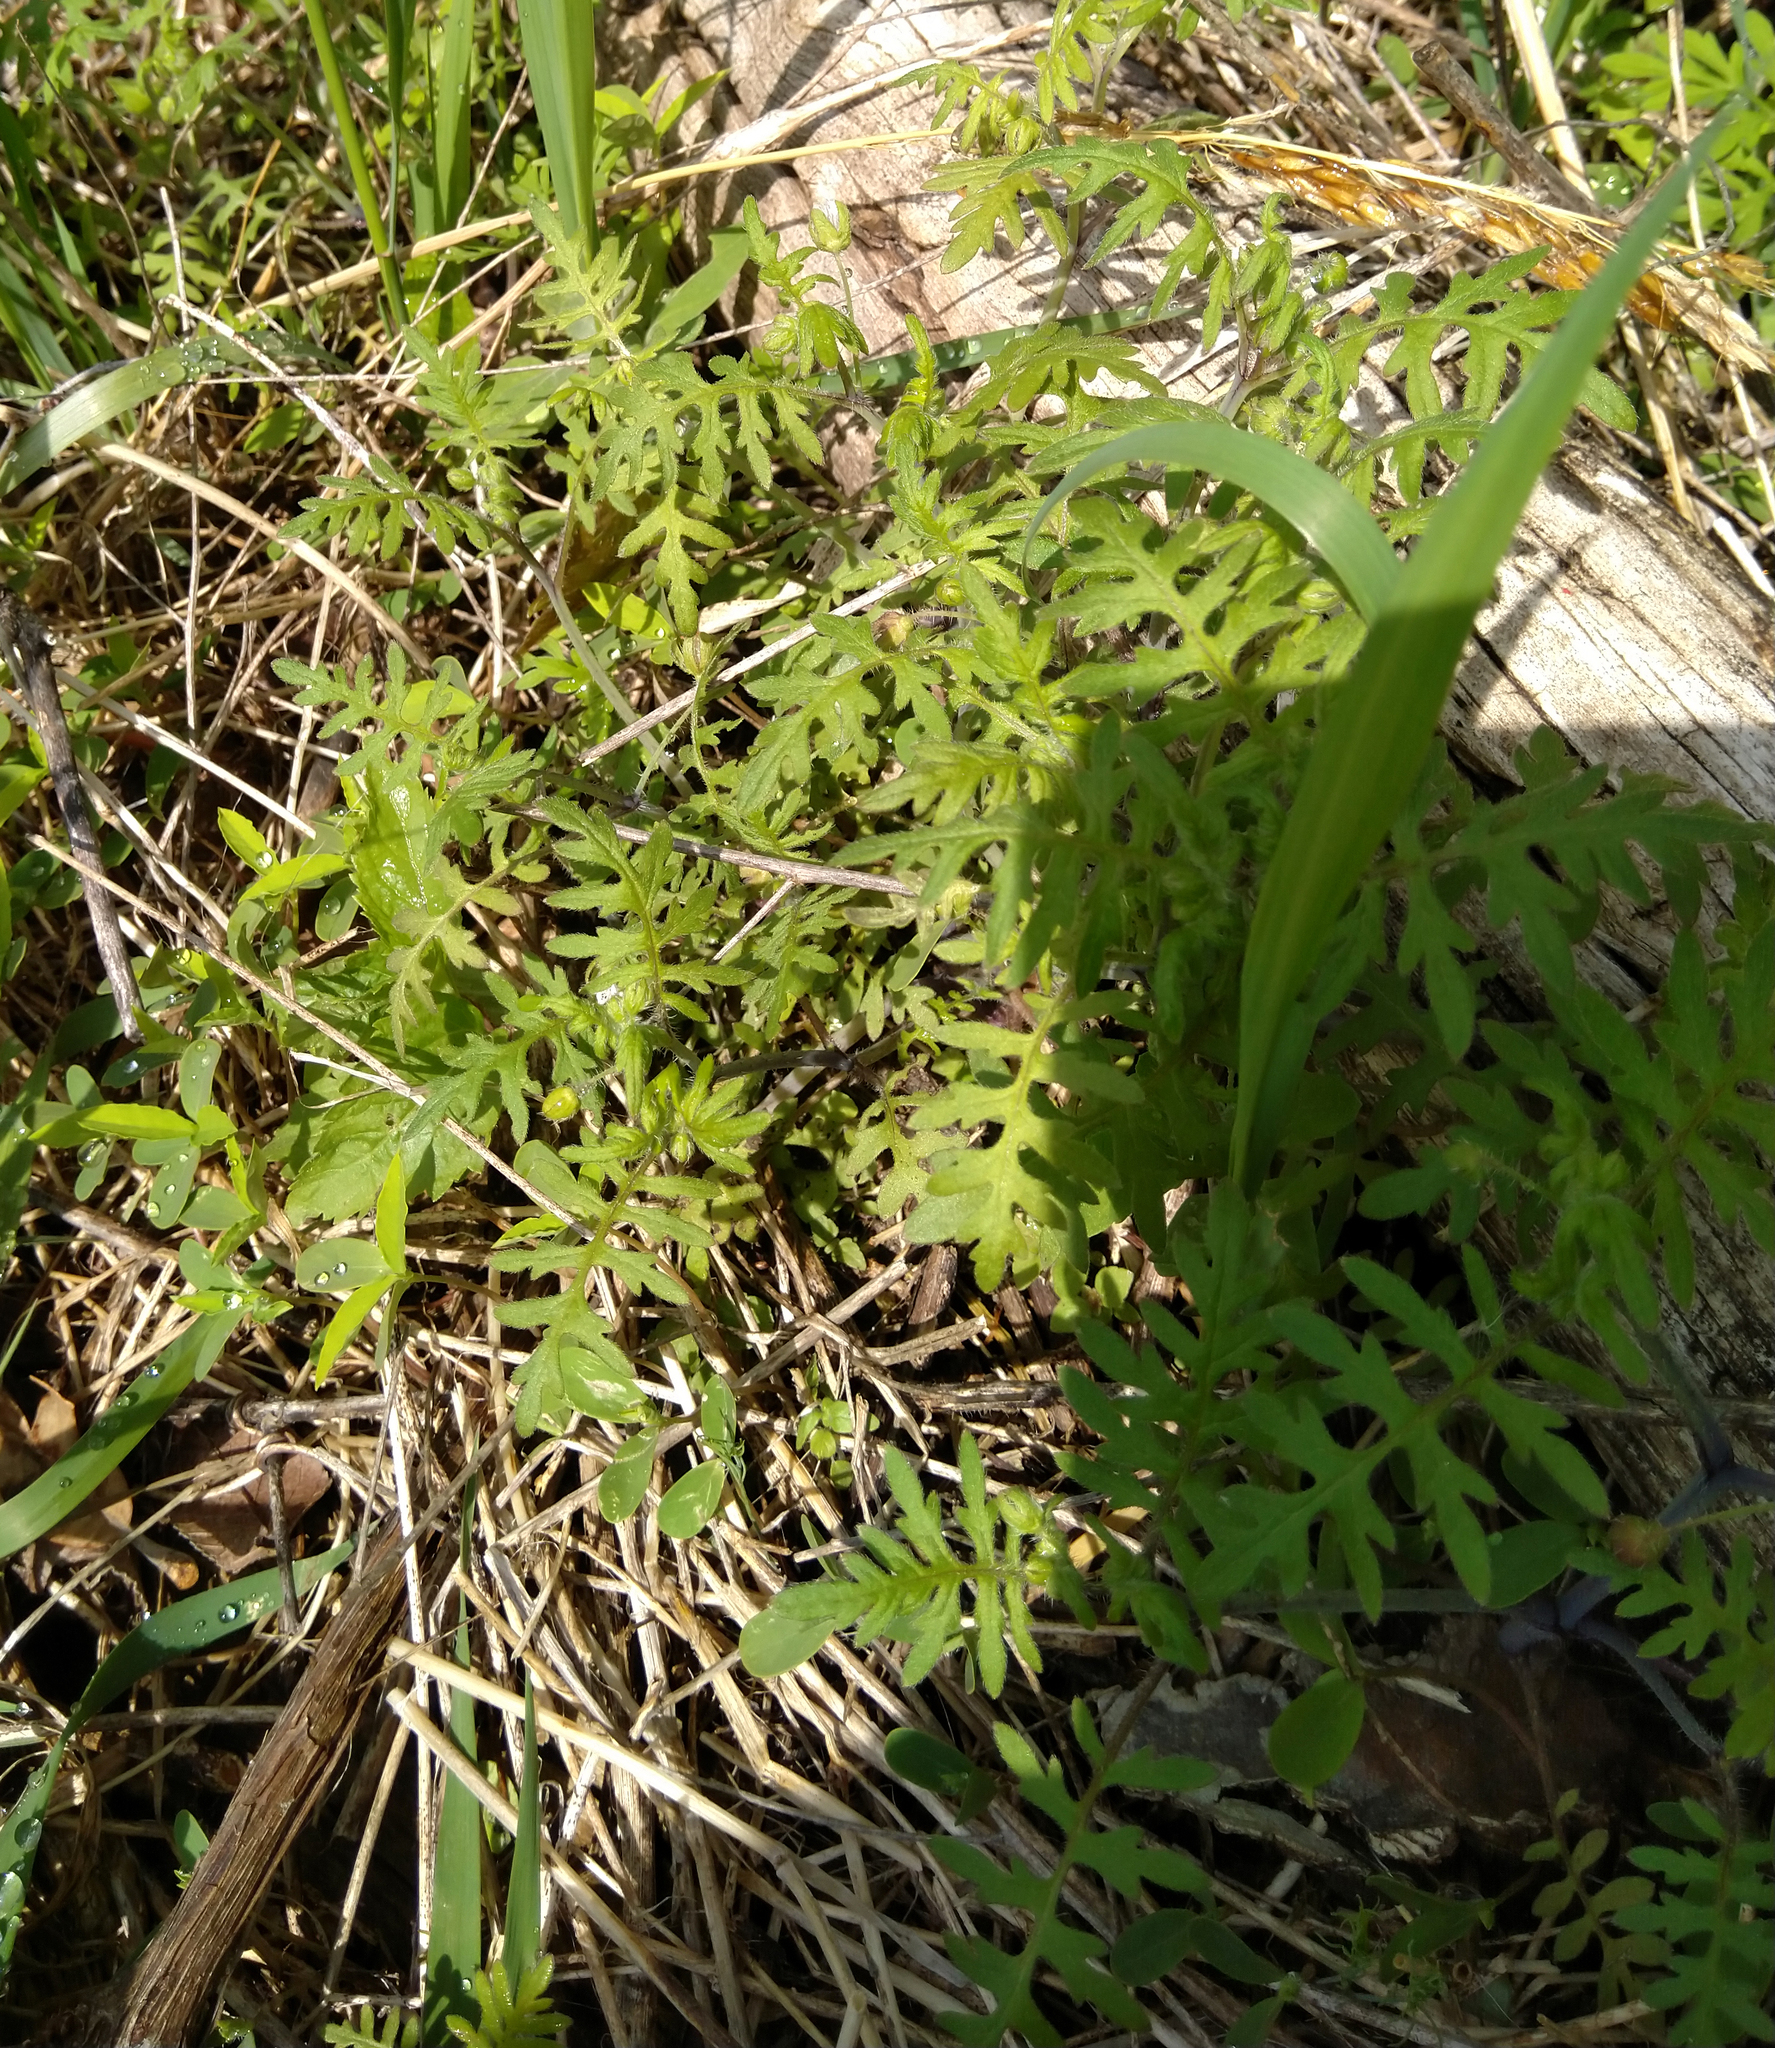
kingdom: Plantae
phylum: Tracheophyta
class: Magnoliopsida
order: Boraginales
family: Hydrophyllaceae
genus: Ellisia
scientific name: Ellisia nyctelea
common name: Aunt lucy
